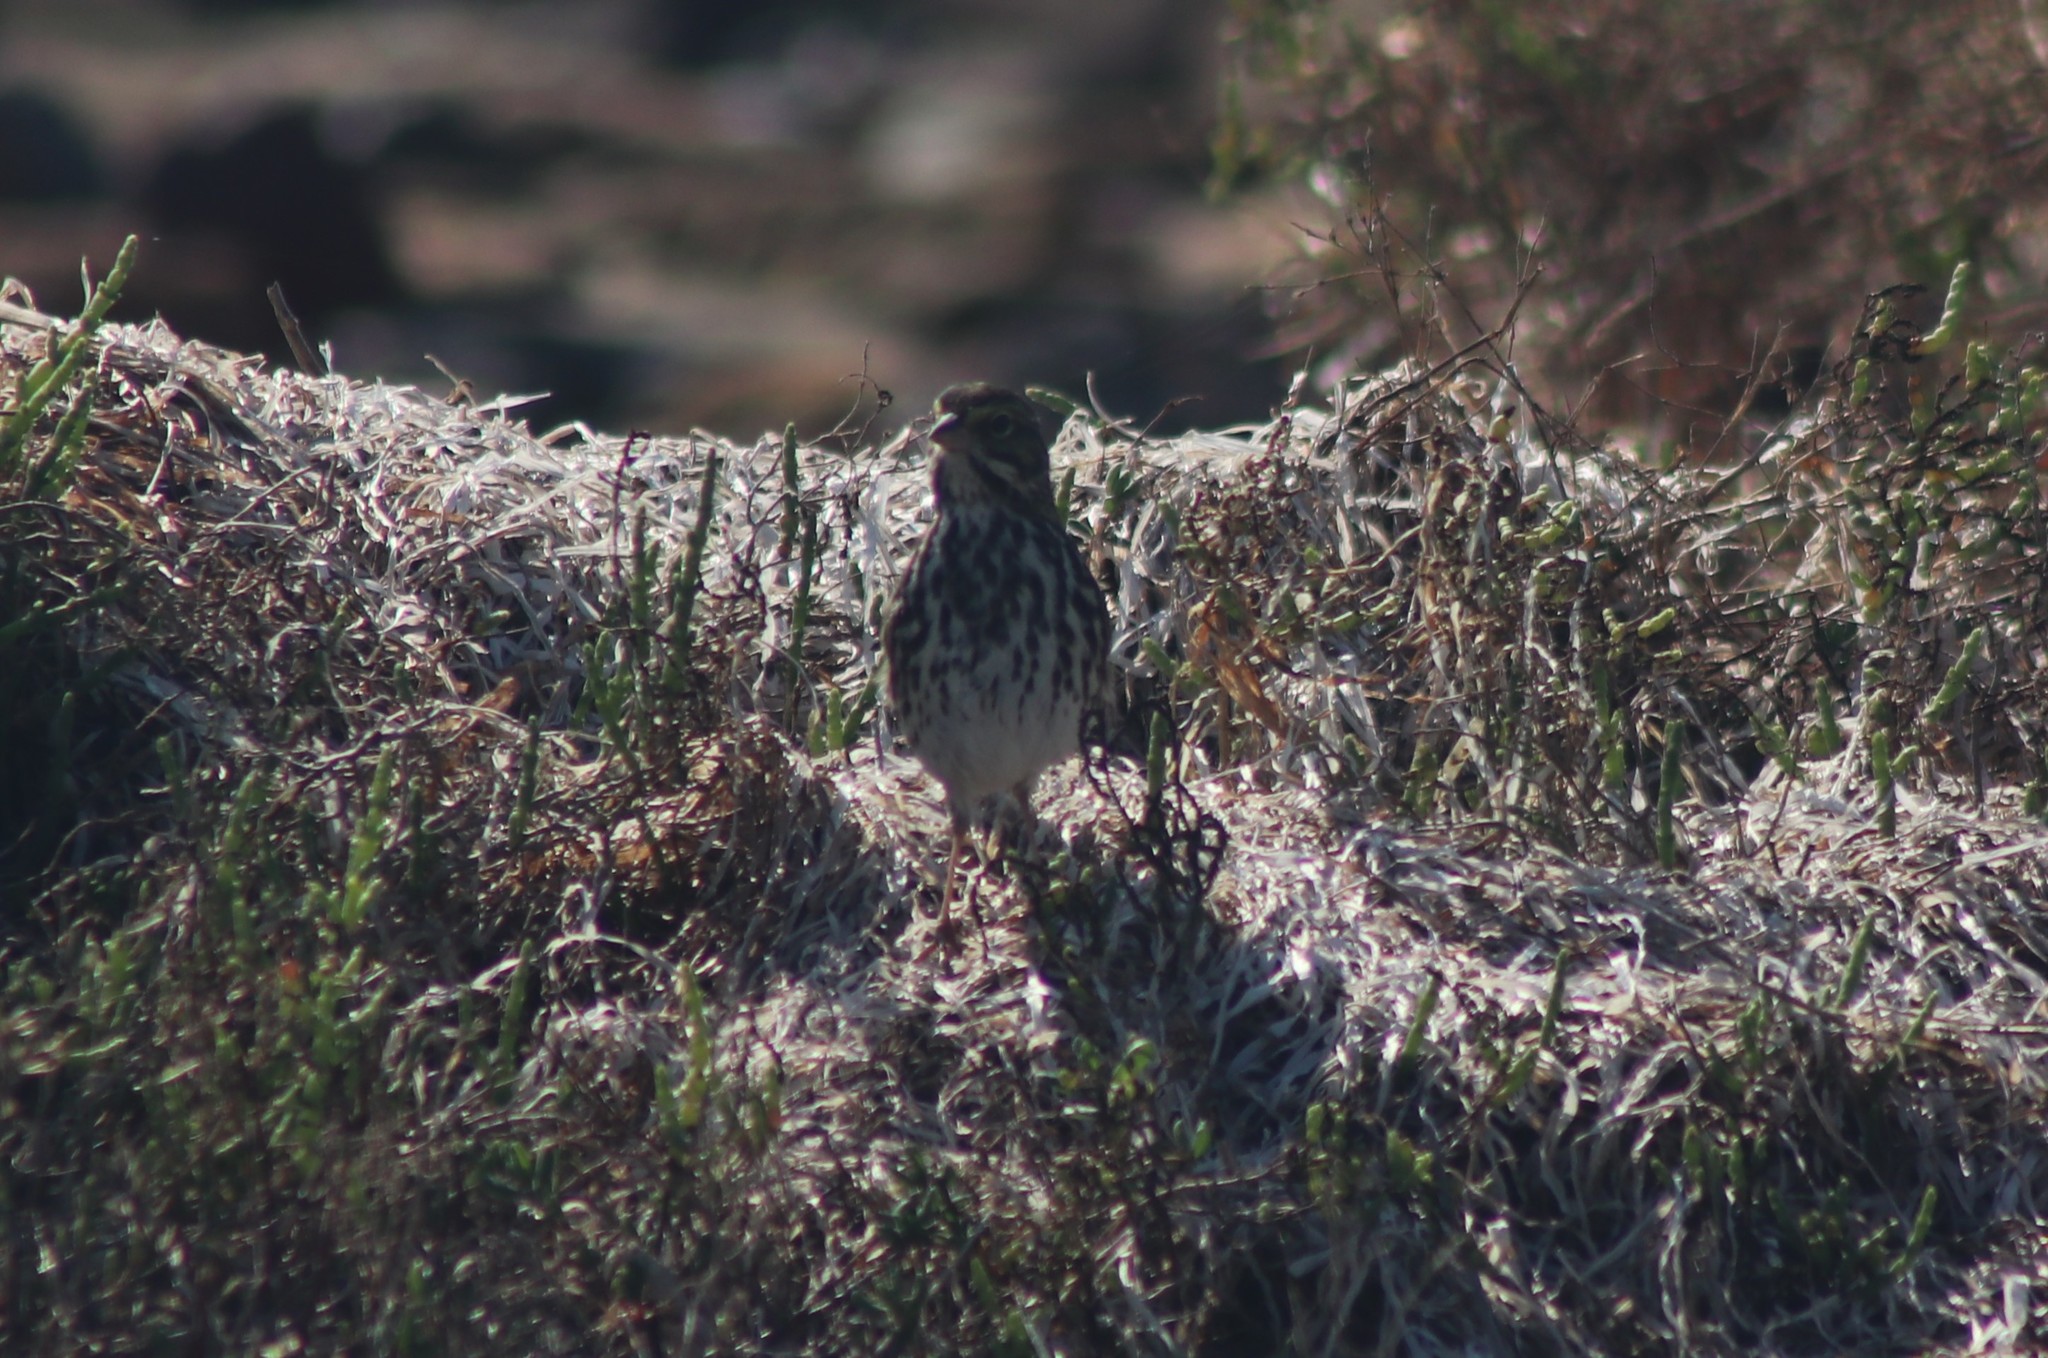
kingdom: Animalia
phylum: Chordata
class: Aves
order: Passeriformes
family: Passerellidae
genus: Passerculus
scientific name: Passerculus sandwichensis
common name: Savannah sparrow
